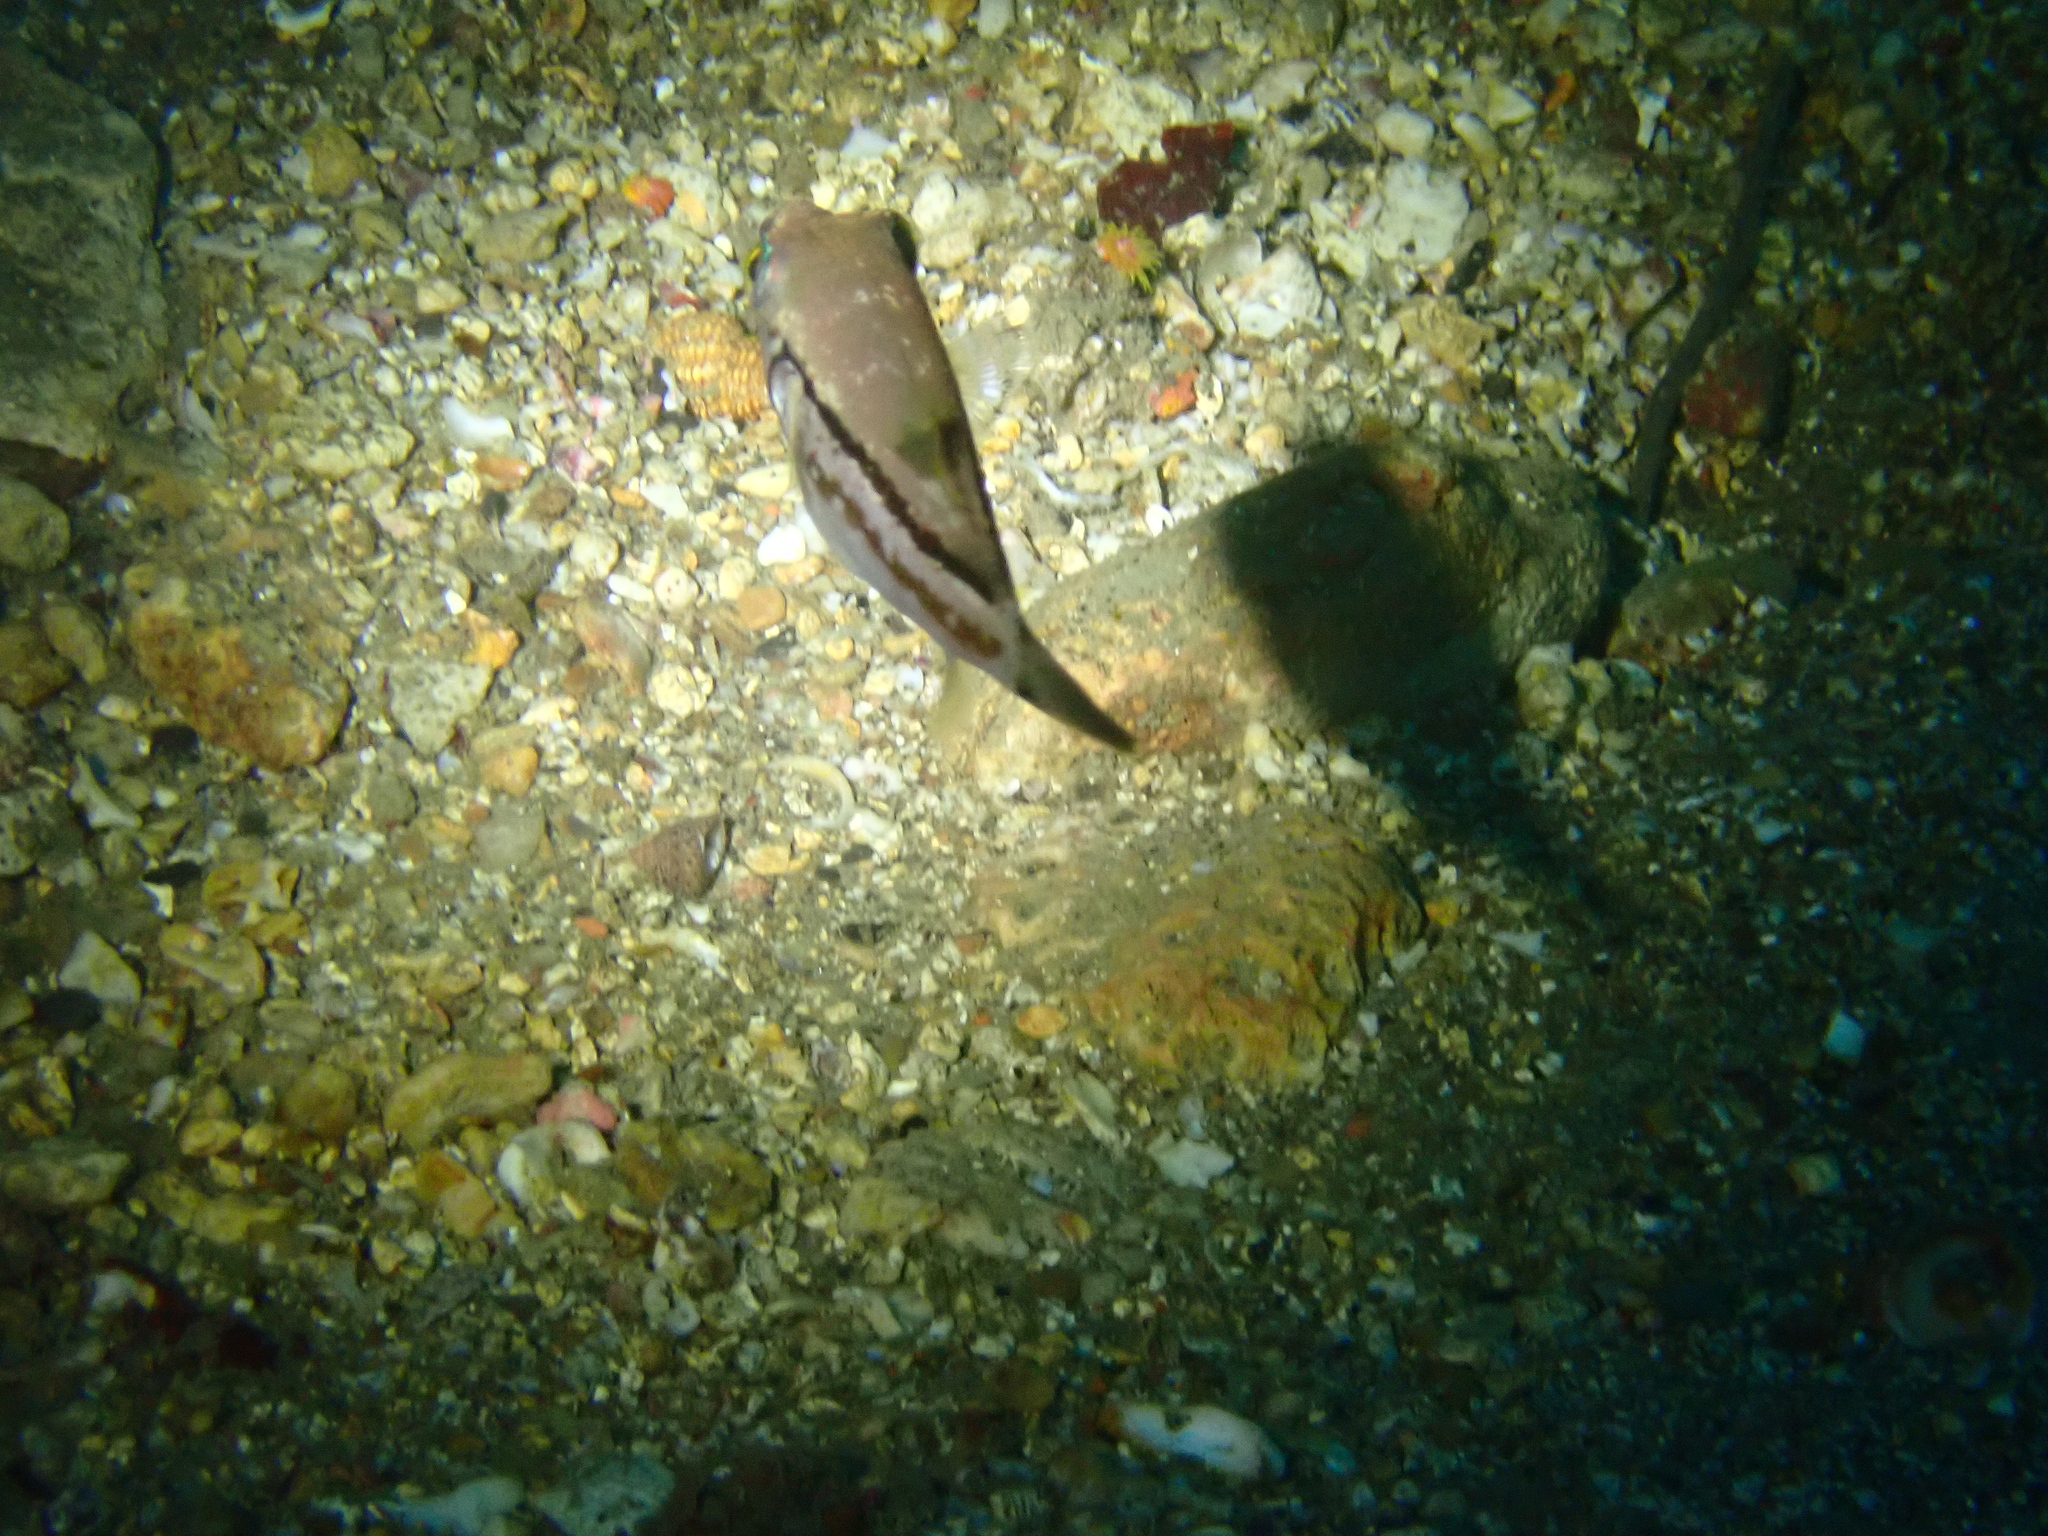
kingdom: Animalia
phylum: Chordata
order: Tetraodontiformes
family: Tetraodontidae
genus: Canthigaster
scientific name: Canthigaster rivulata
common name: Brown-lined puffer
